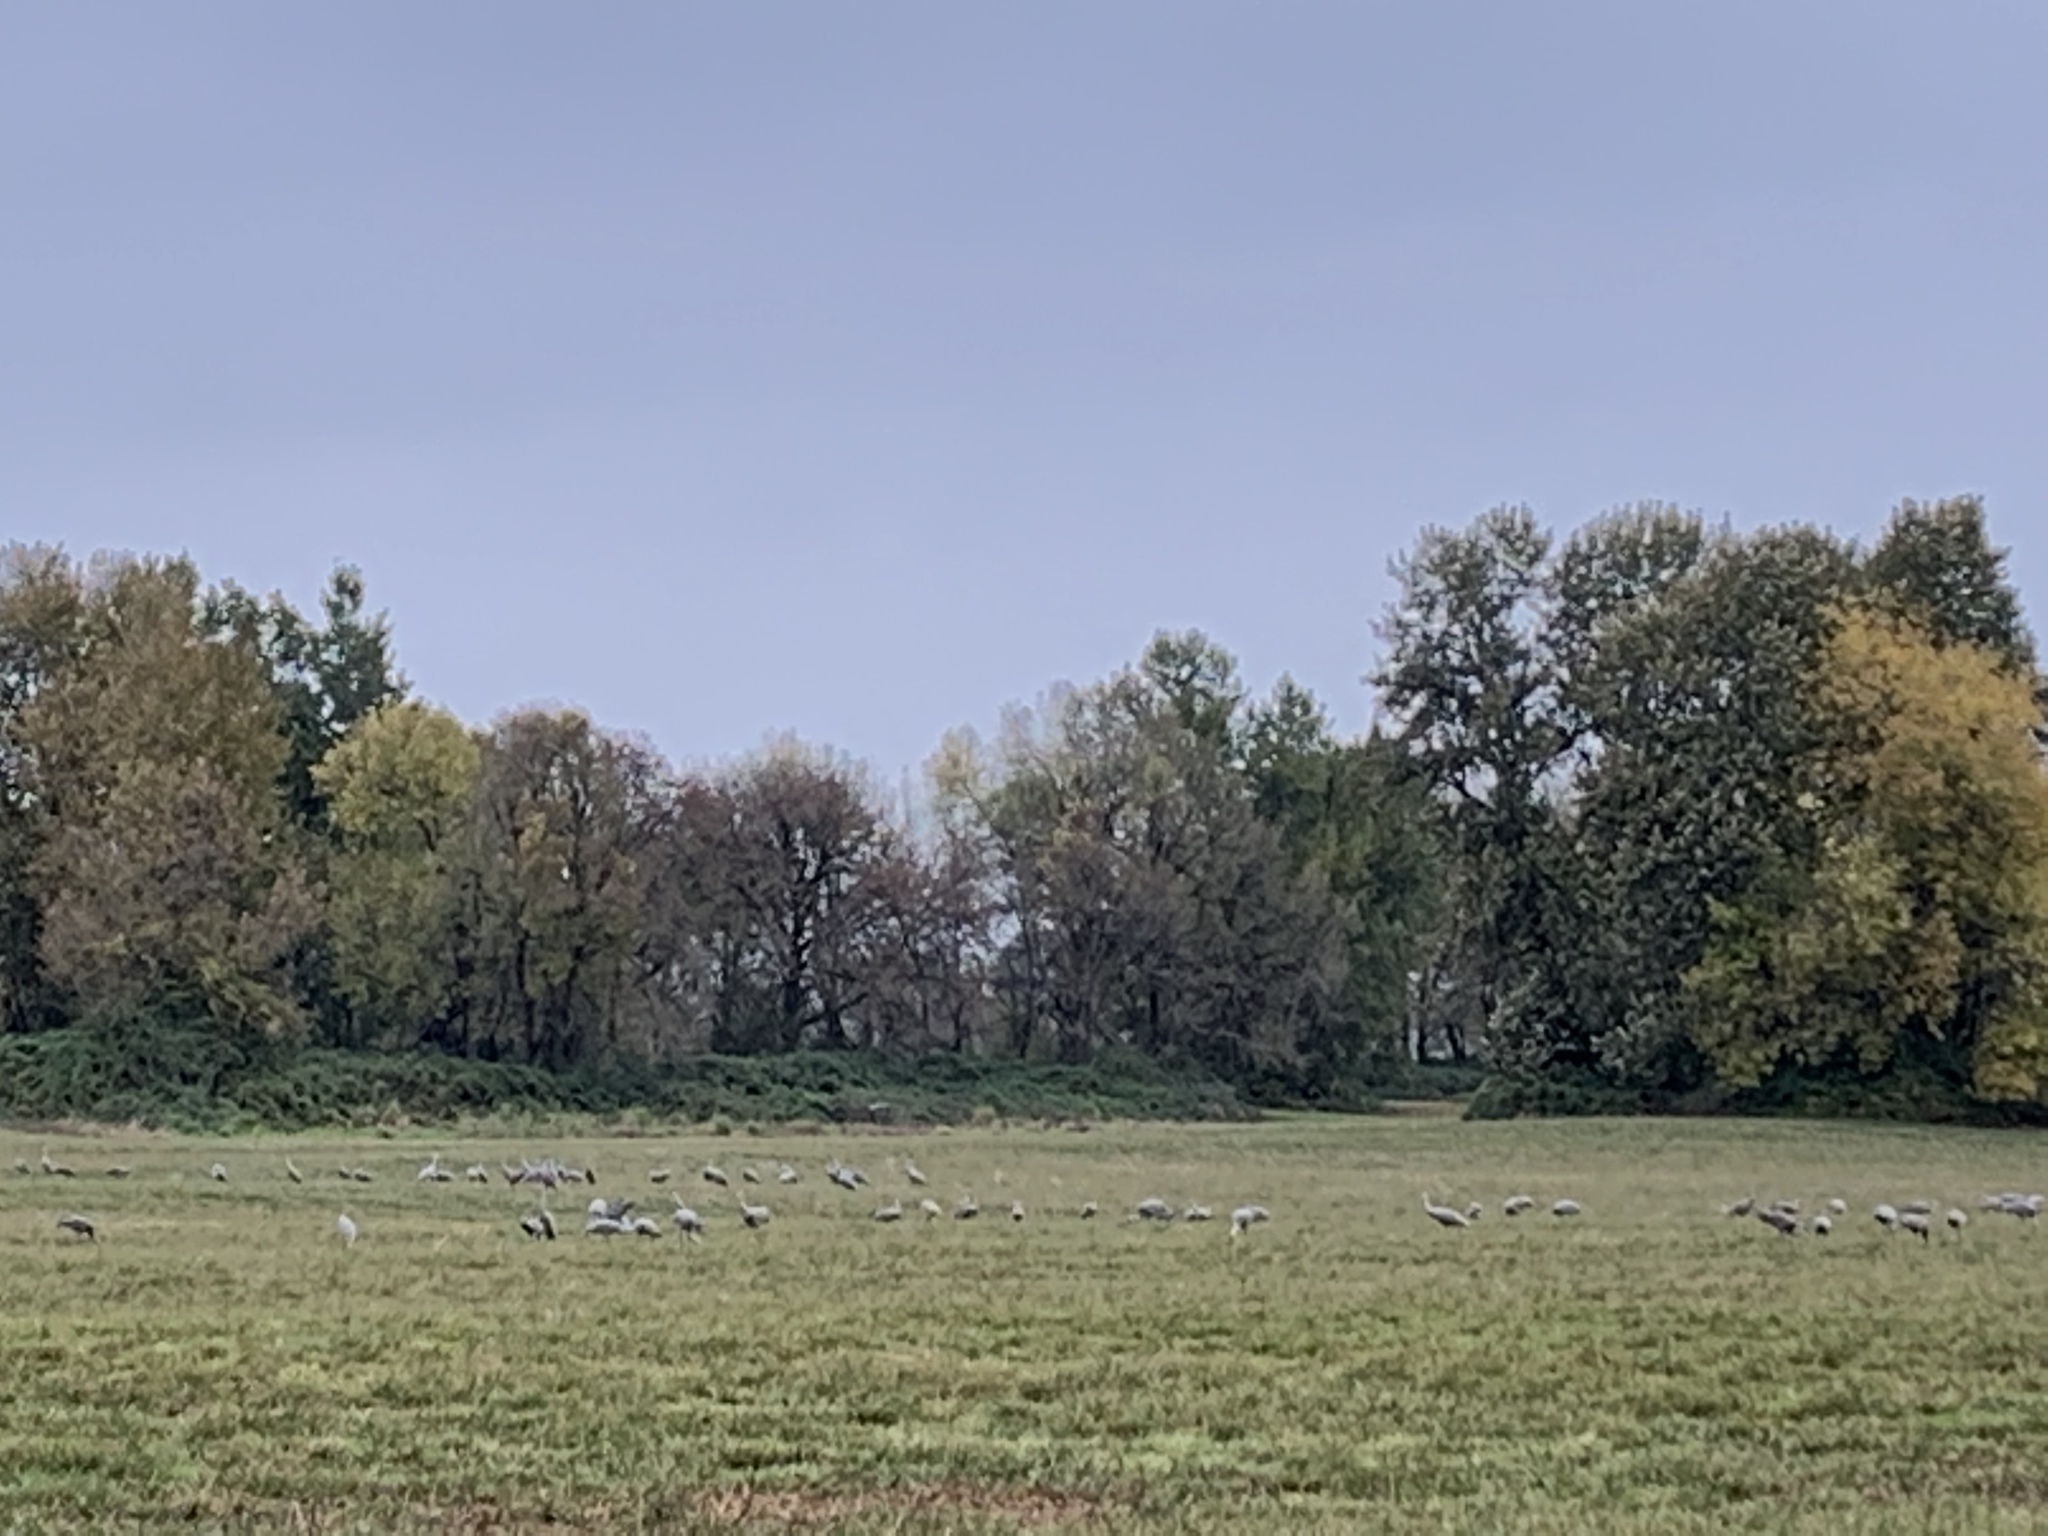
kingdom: Animalia
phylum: Chordata
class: Aves
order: Gruiformes
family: Gruidae
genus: Grus
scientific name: Grus canadensis
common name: Sandhill crane
